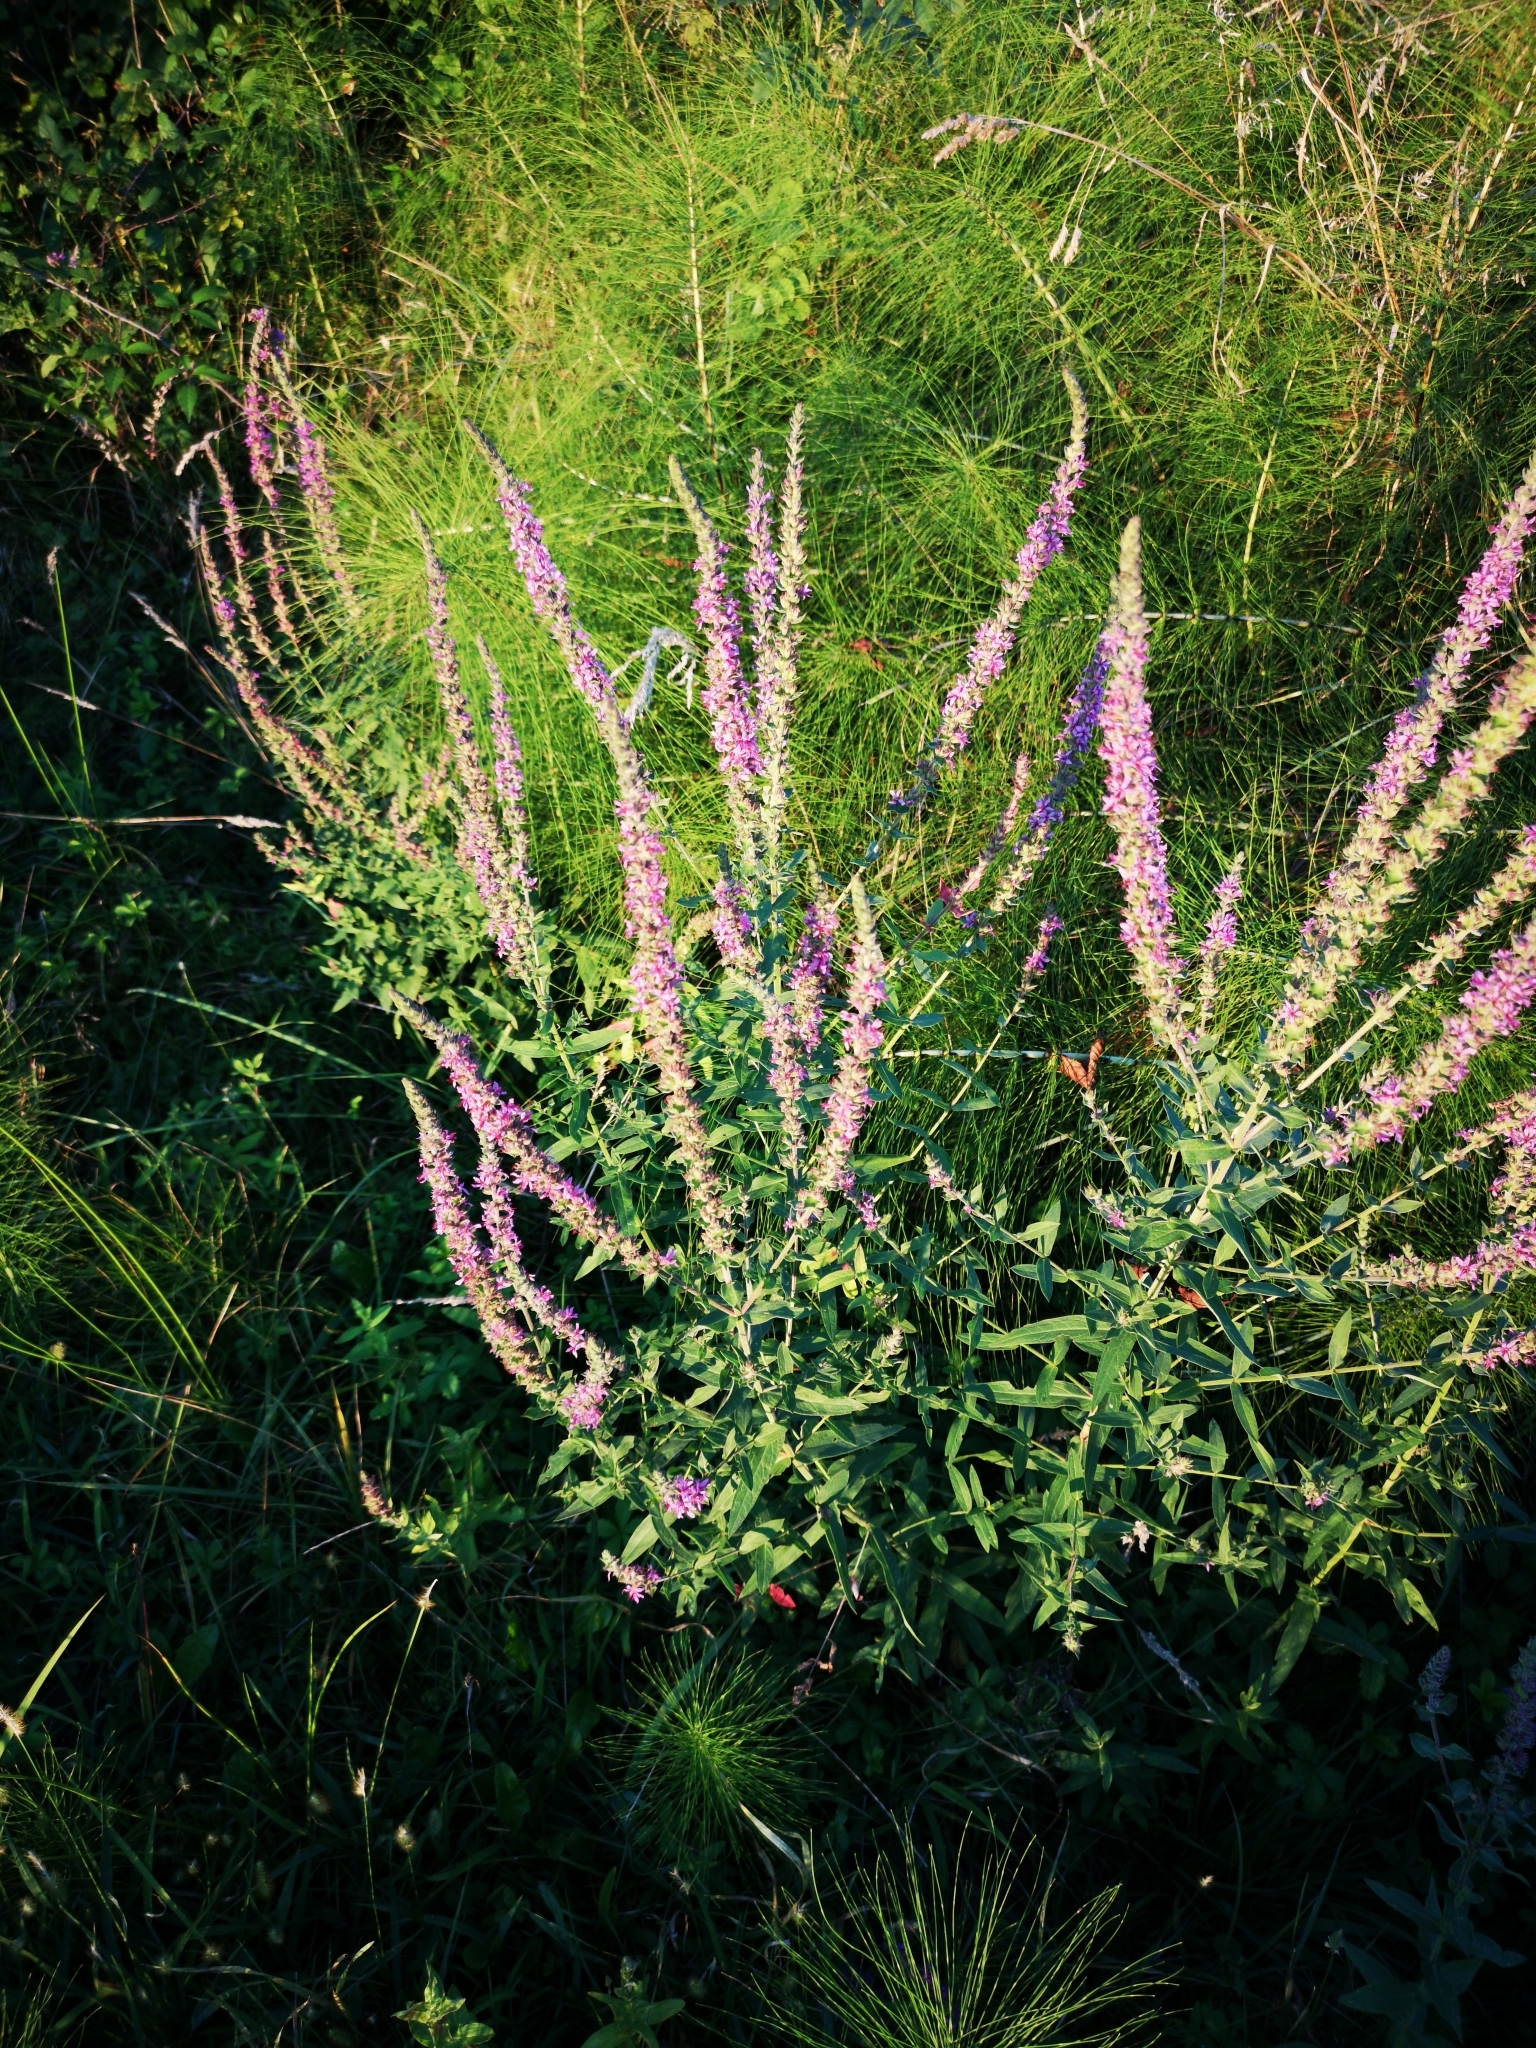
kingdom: Plantae
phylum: Tracheophyta
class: Magnoliopsida
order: Myrtales
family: Lythraceae
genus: Lythrum
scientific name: Lythrum salicaria
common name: Purple loosestrife
